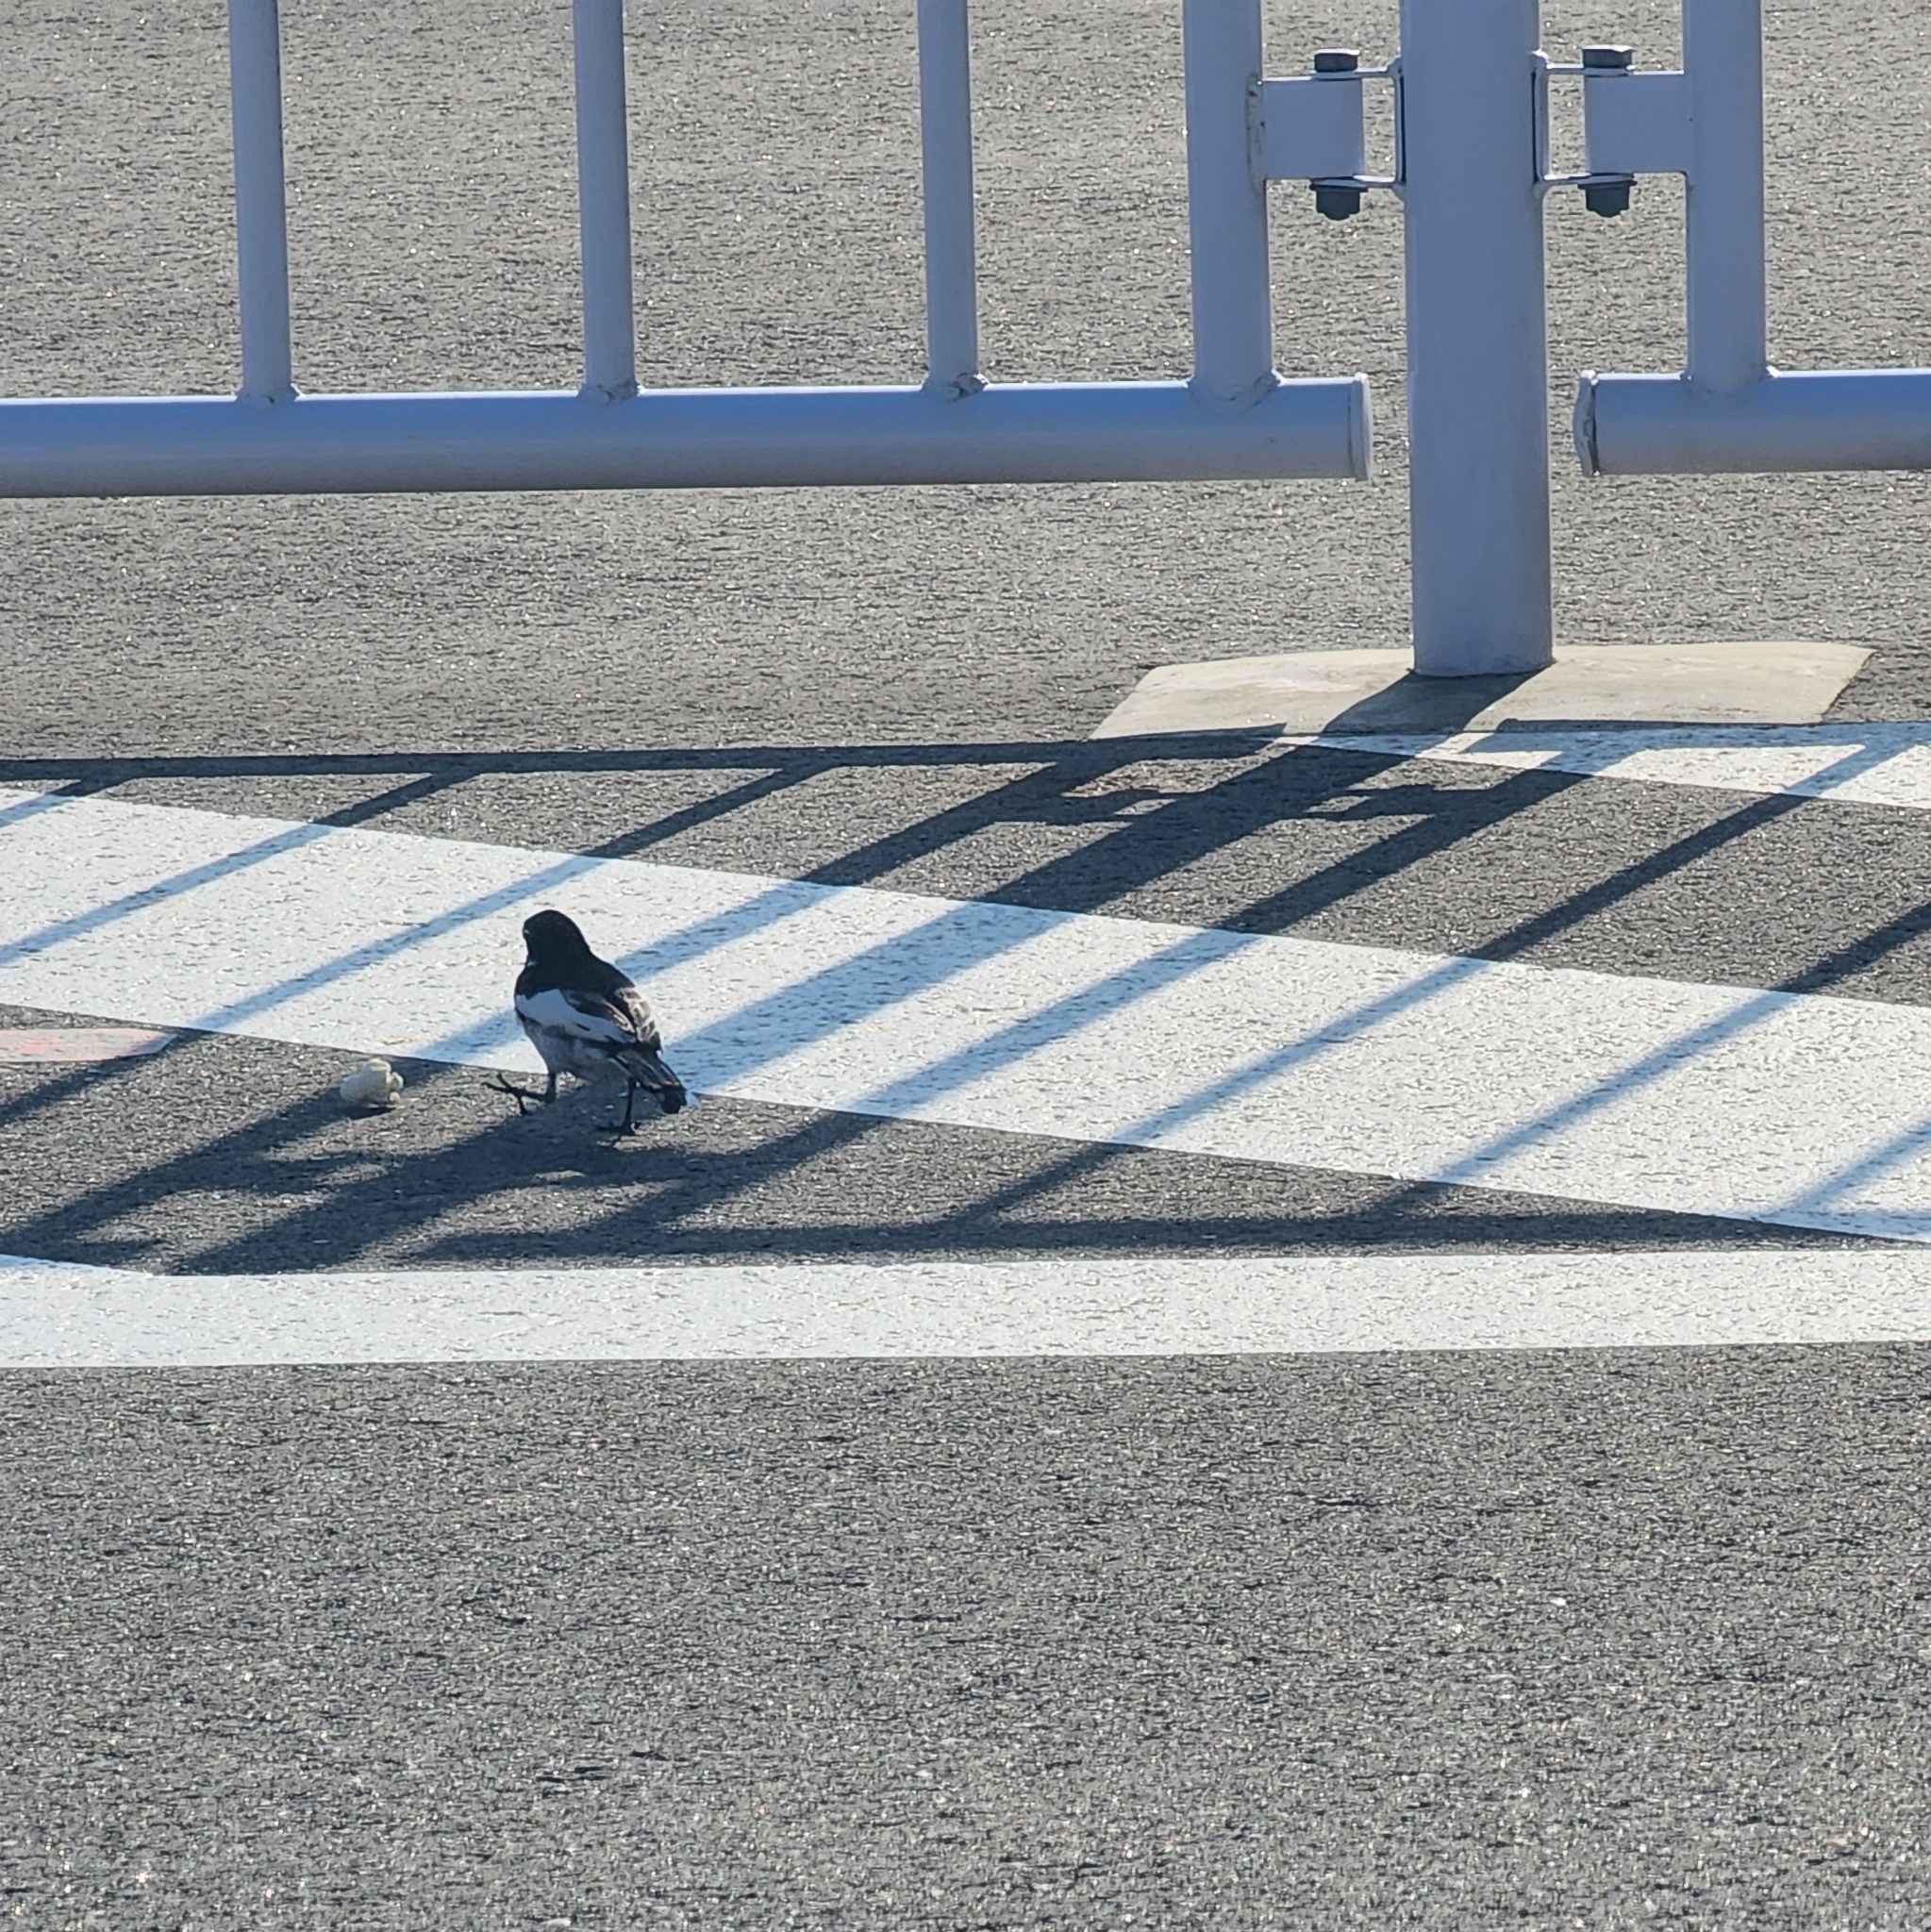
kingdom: Animalia
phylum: Chordata
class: Aves
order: Passeriformes
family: Motacillidae
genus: Motacilla
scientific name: Motacilla alba
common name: White wagtail
